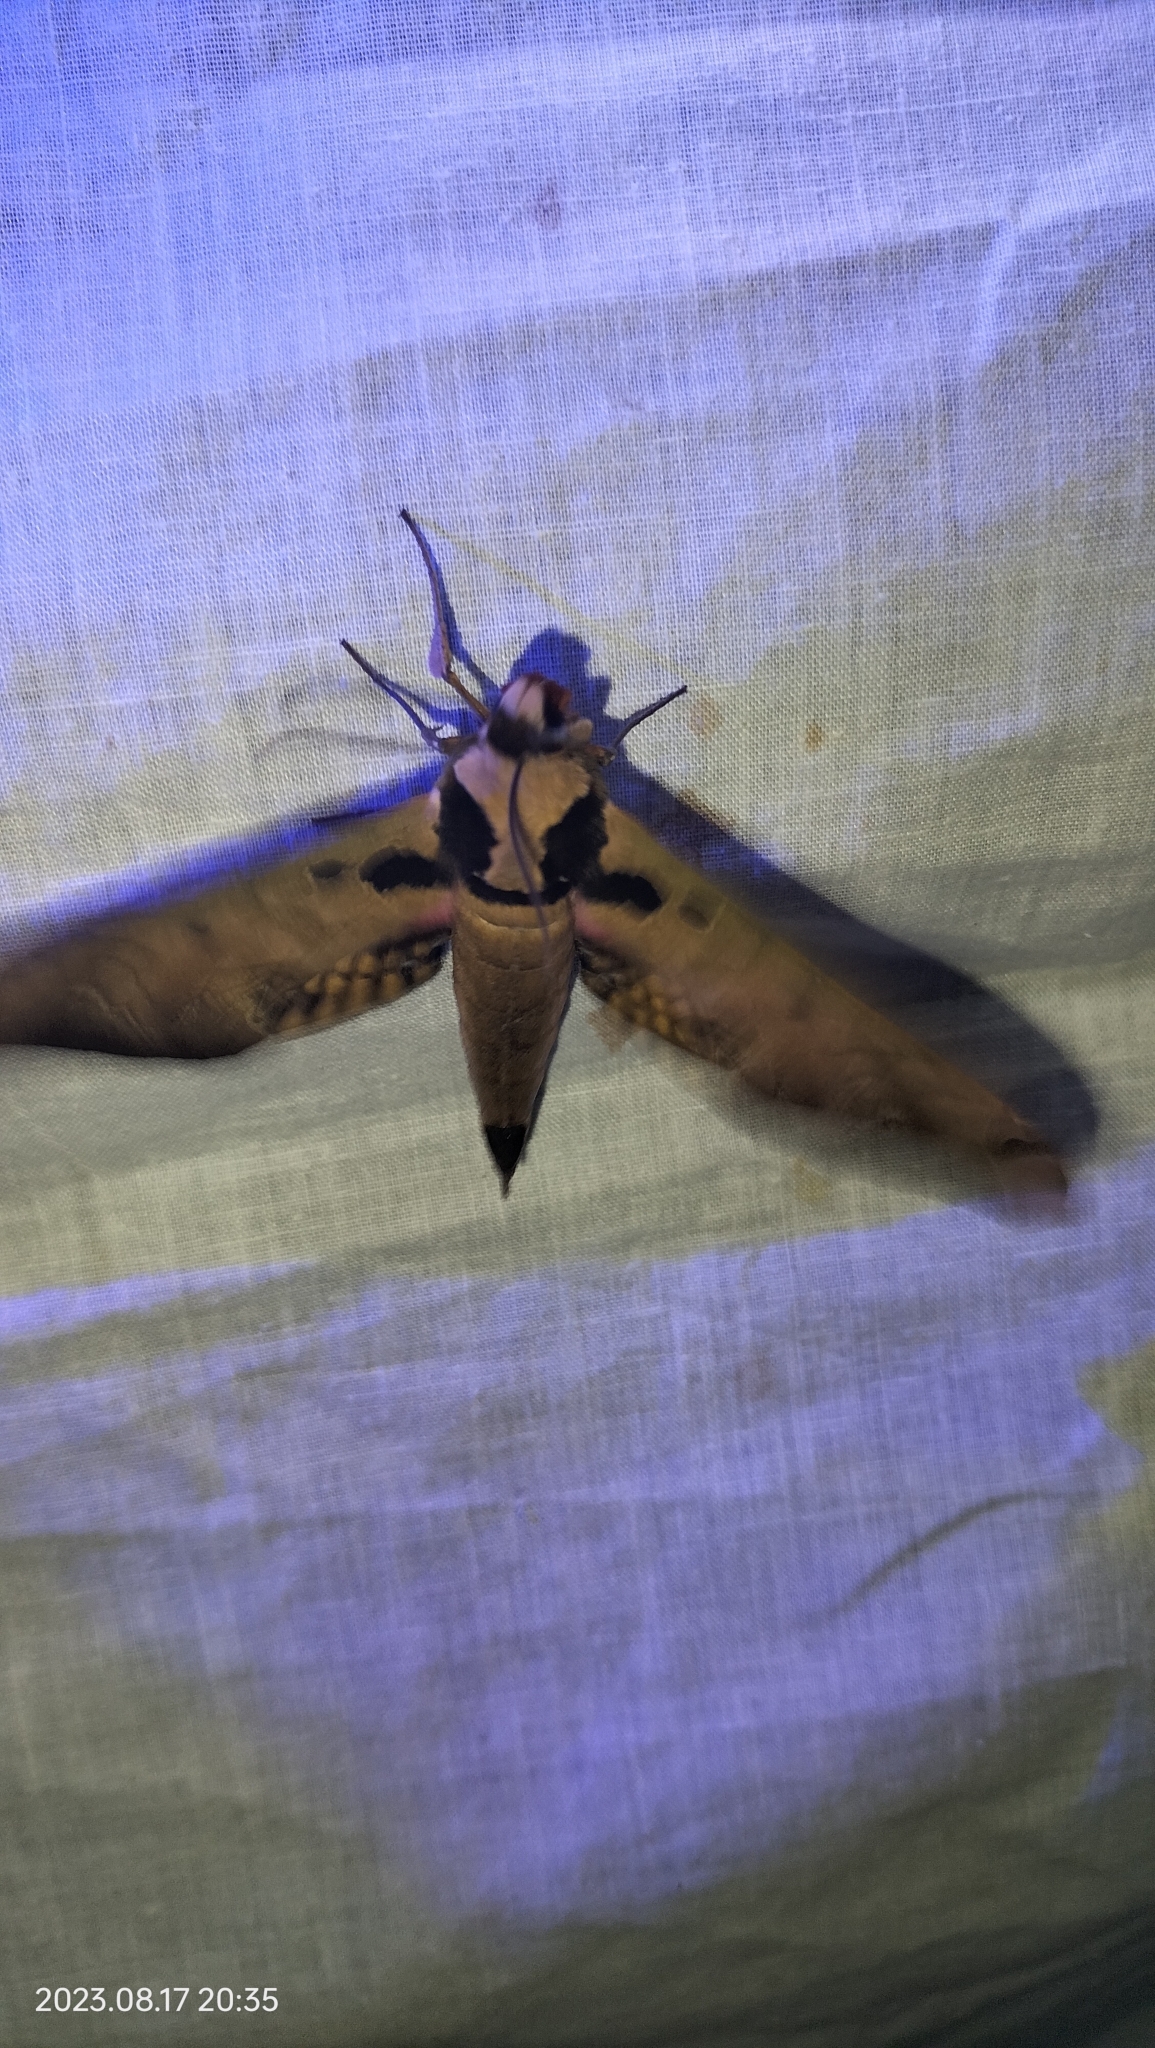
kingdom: Animalia
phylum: Arthropoda
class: Insecta
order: Lepidoptera
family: Sphingidae
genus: Adhemarius
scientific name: Adhemarius sexoculata
